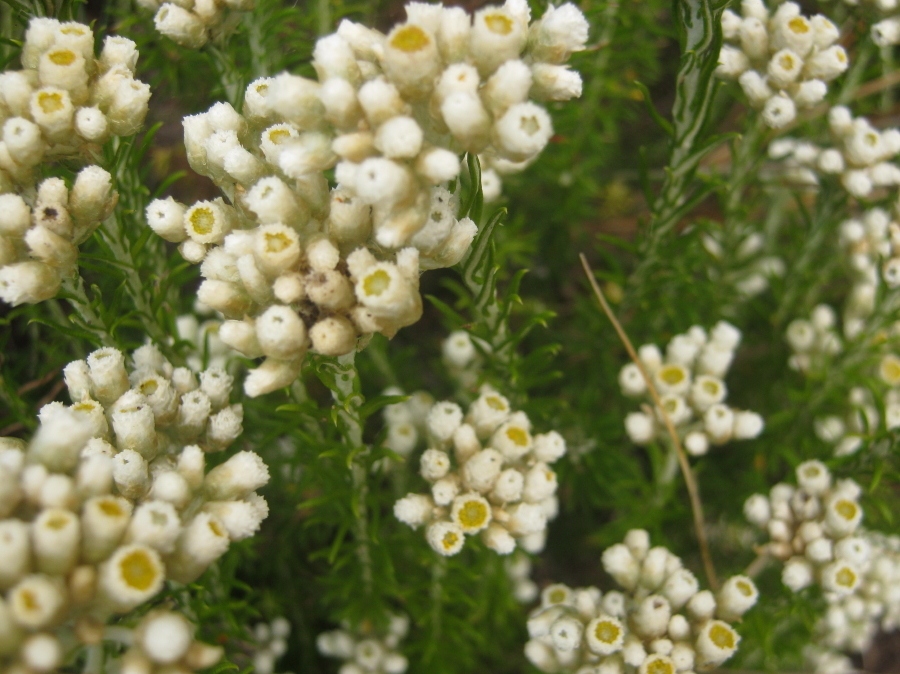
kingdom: Plantae
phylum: Tracheophyta
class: Magnoliopsida
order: Asterales
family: Asteraceae
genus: Helichrysum
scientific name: Helichrysum teretifolium
